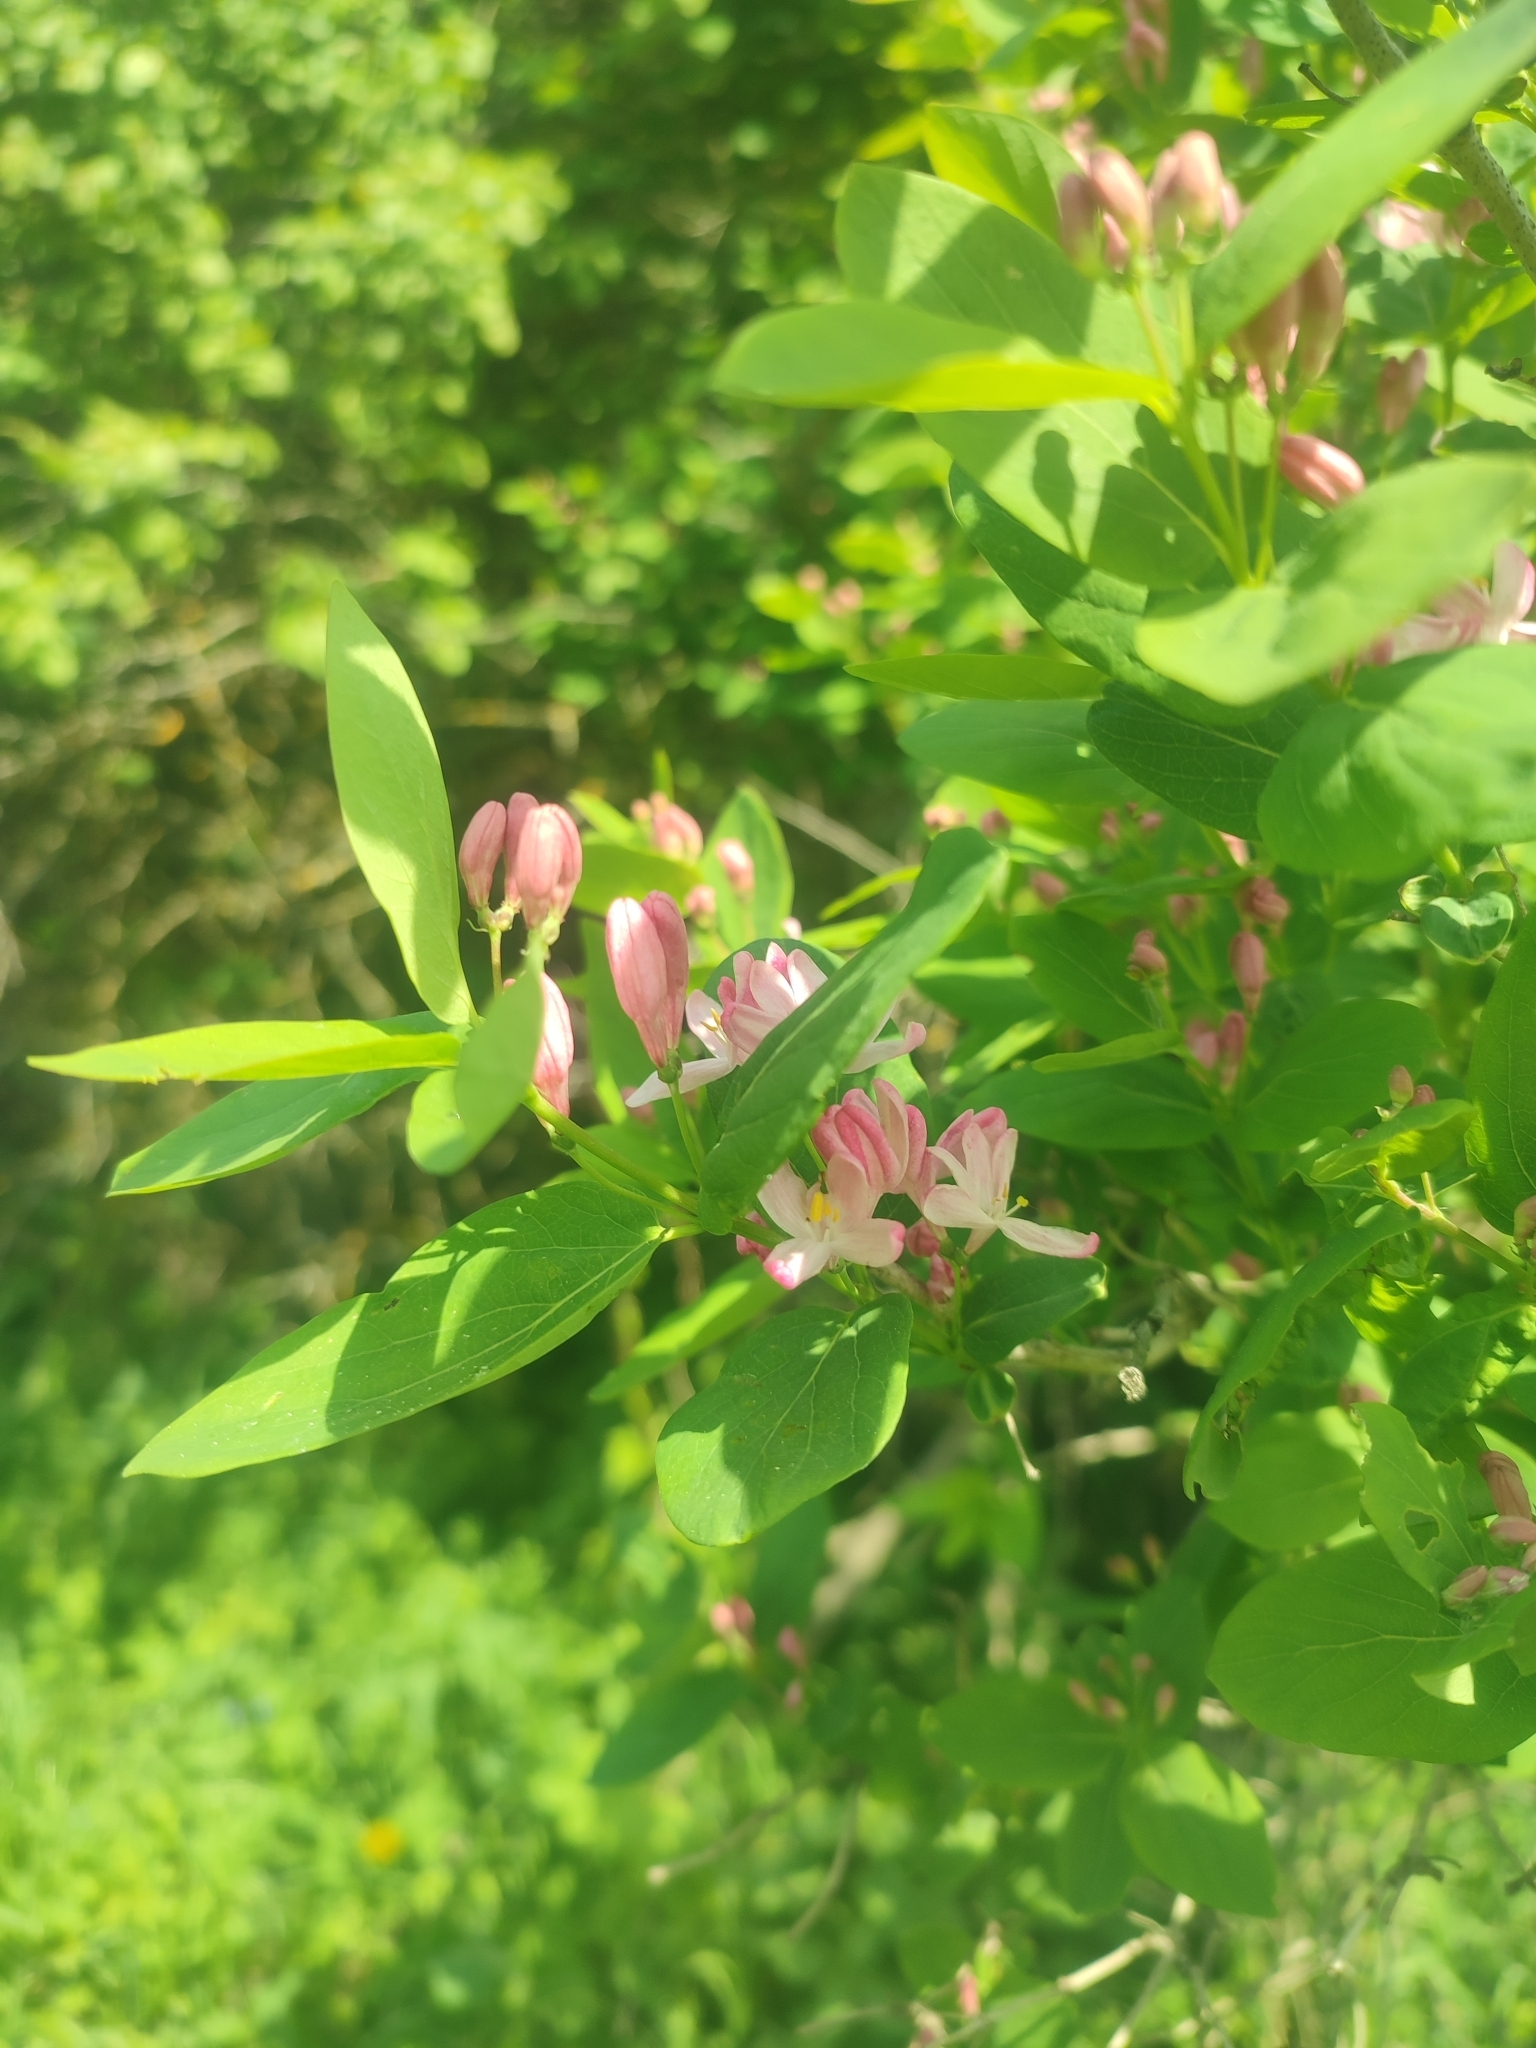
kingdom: Plantae
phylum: Tracheophyta
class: Magnoliopsida
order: Dipsacales
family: Caprifoliaceae
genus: Lonicera
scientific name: Lonicera tatarica
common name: Tatarian honeysuckle
